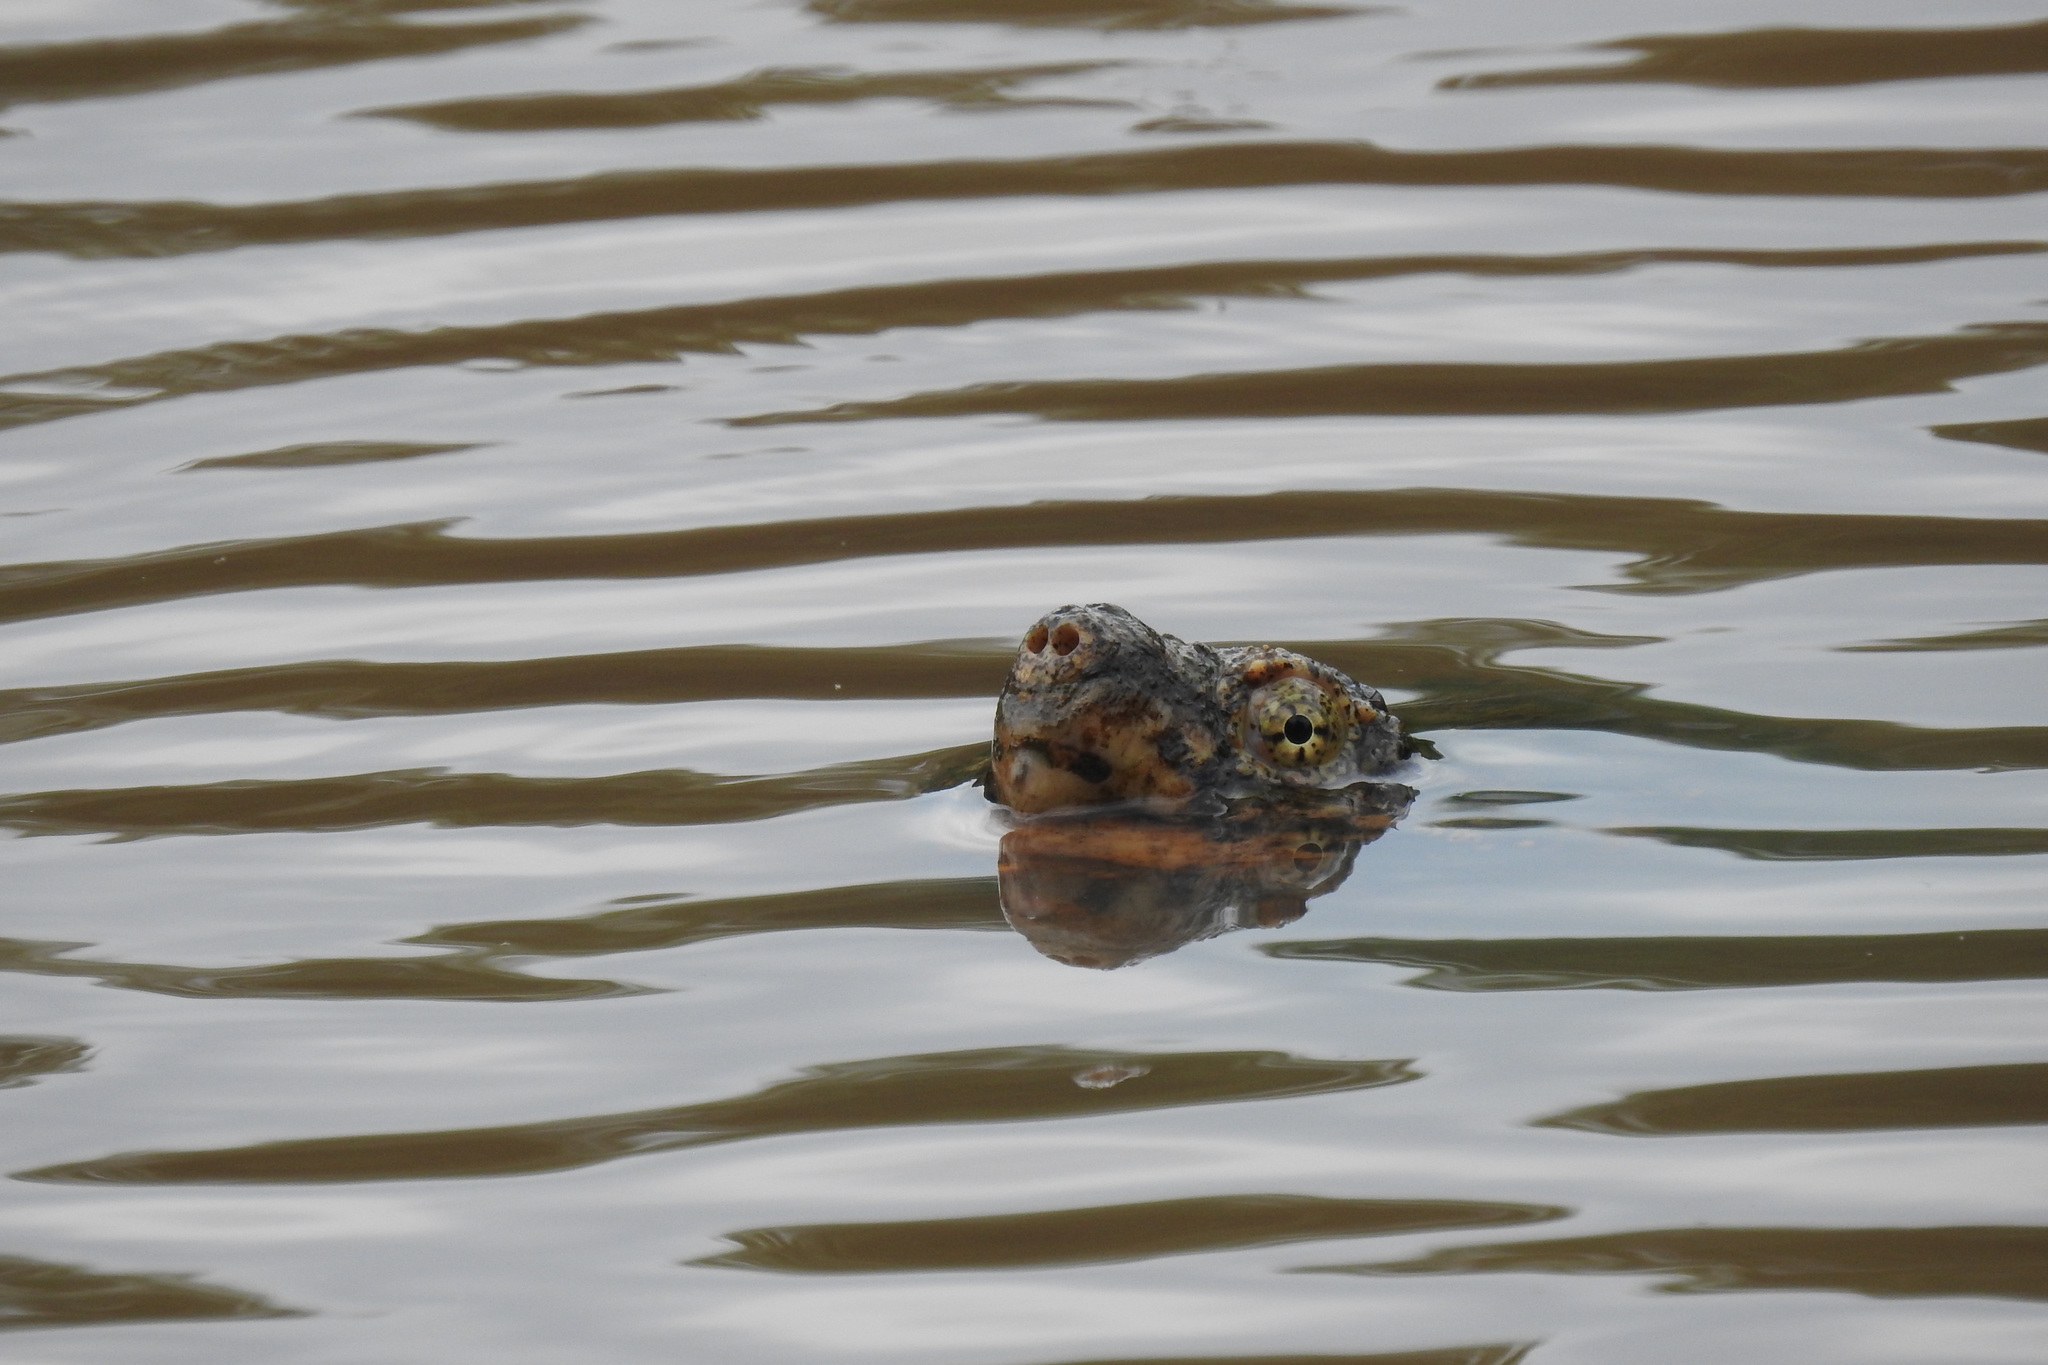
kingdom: Animalia
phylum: Chordata
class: Testudines
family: Chelydridae
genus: Chelydra
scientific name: Chelydra serpentina
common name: Common snapping turtle
